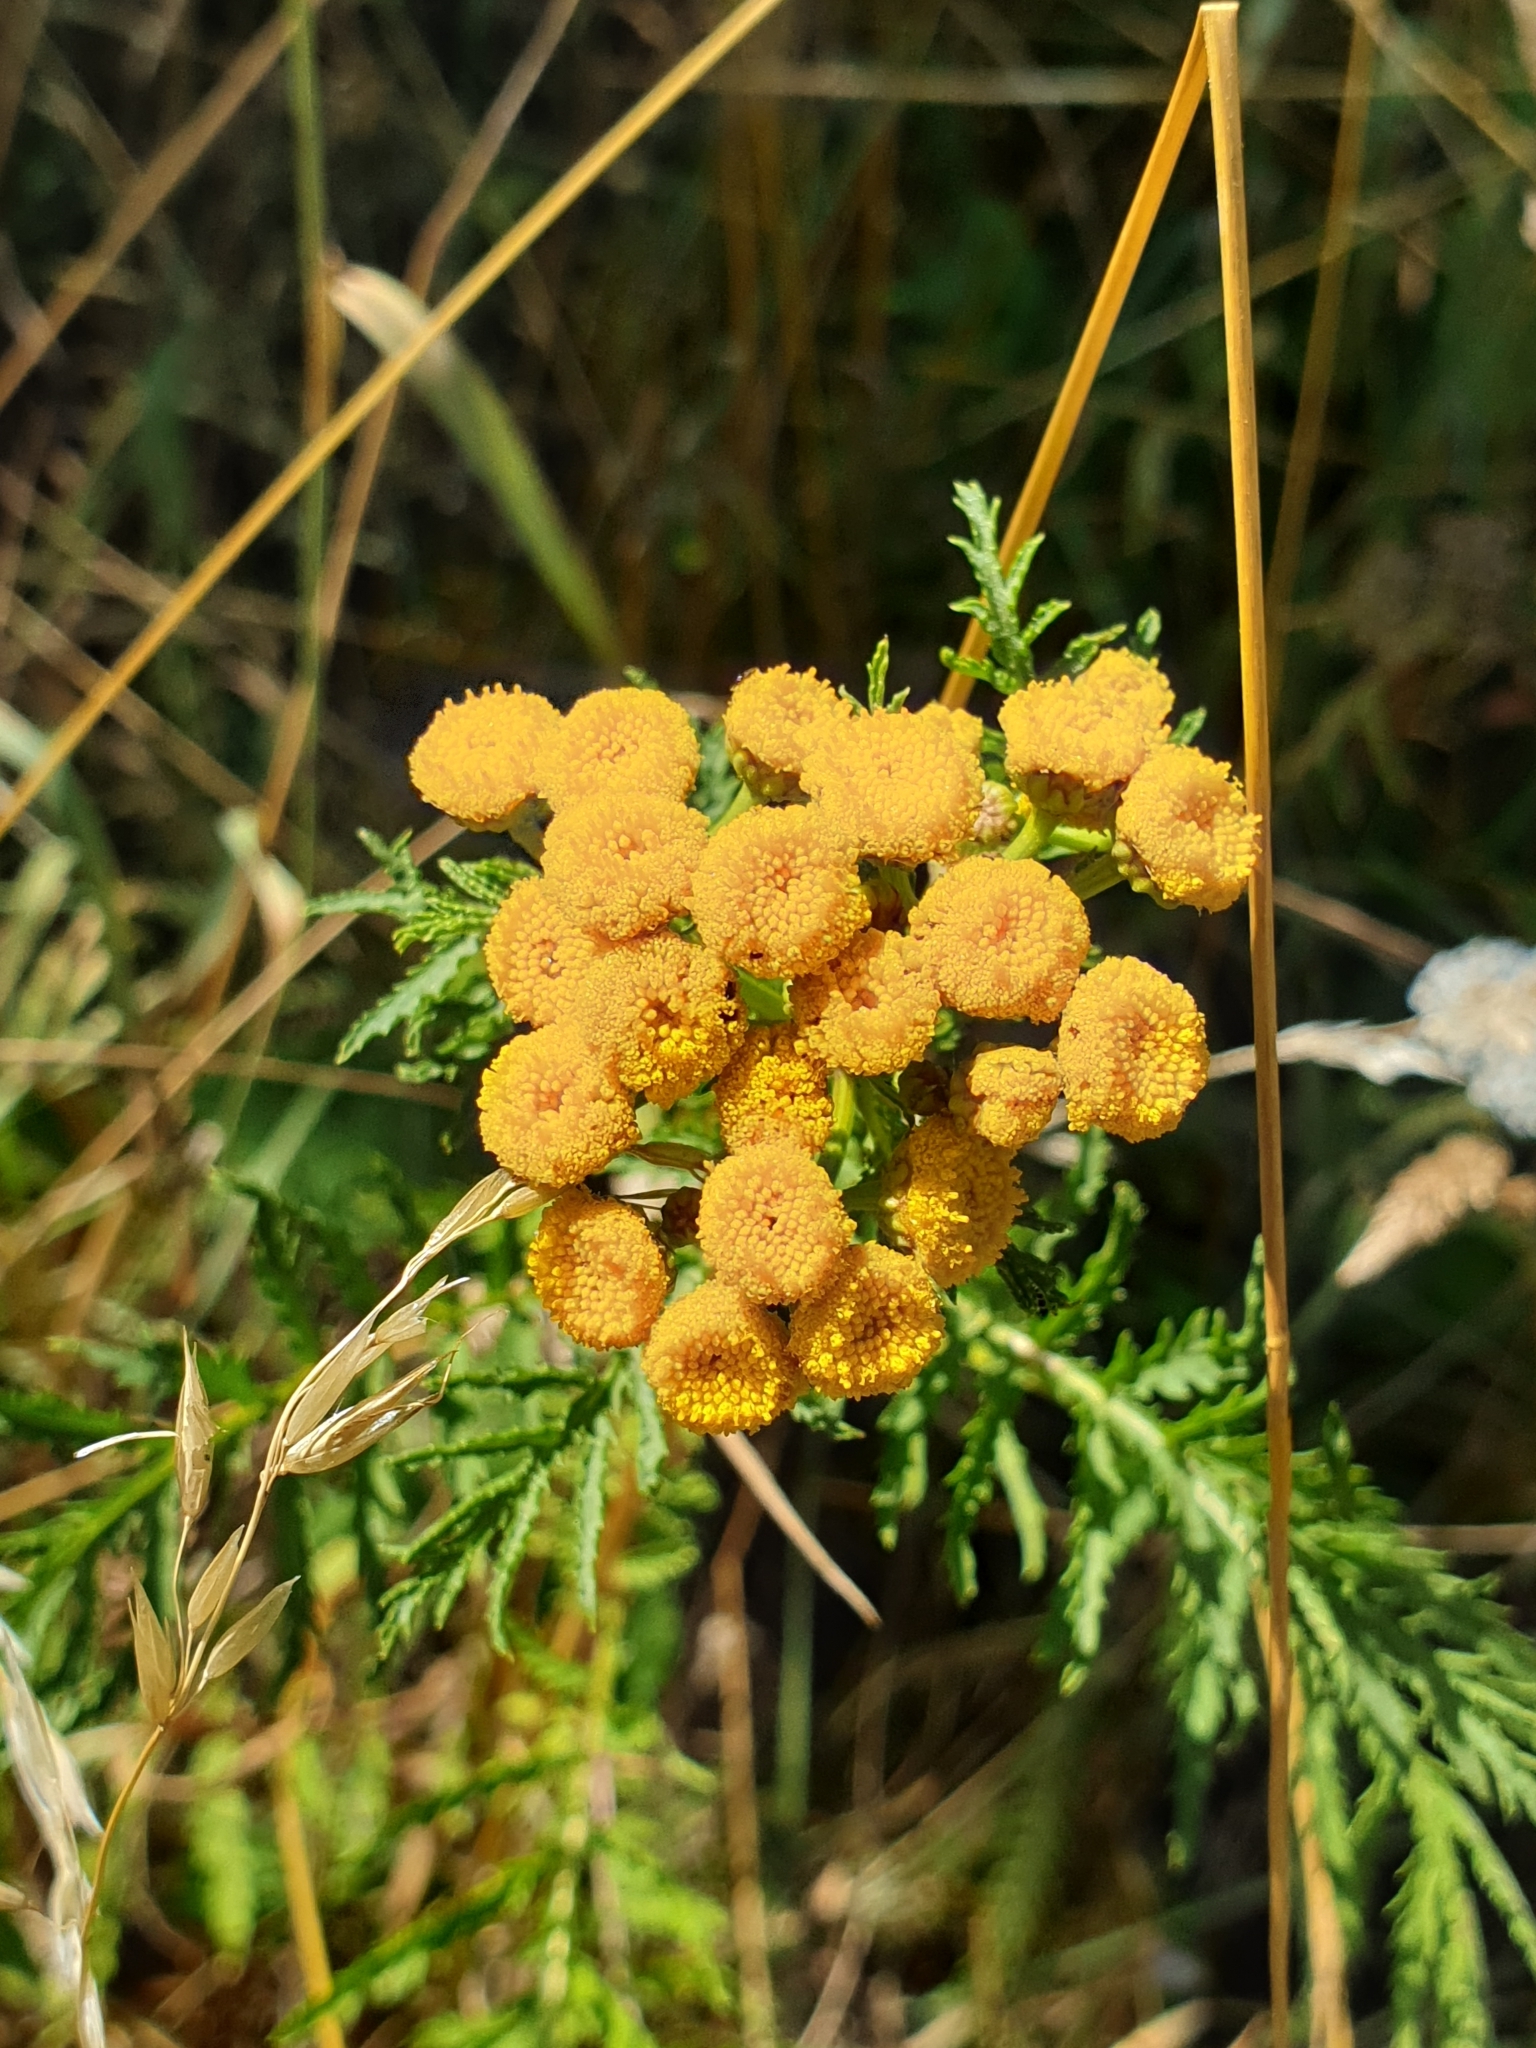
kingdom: Plantae
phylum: Tracheophyta
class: Magnoliopsida
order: Asterales
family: Asteraceae
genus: Tanacetum
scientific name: Tanacetum vulgare
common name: Common tansy
